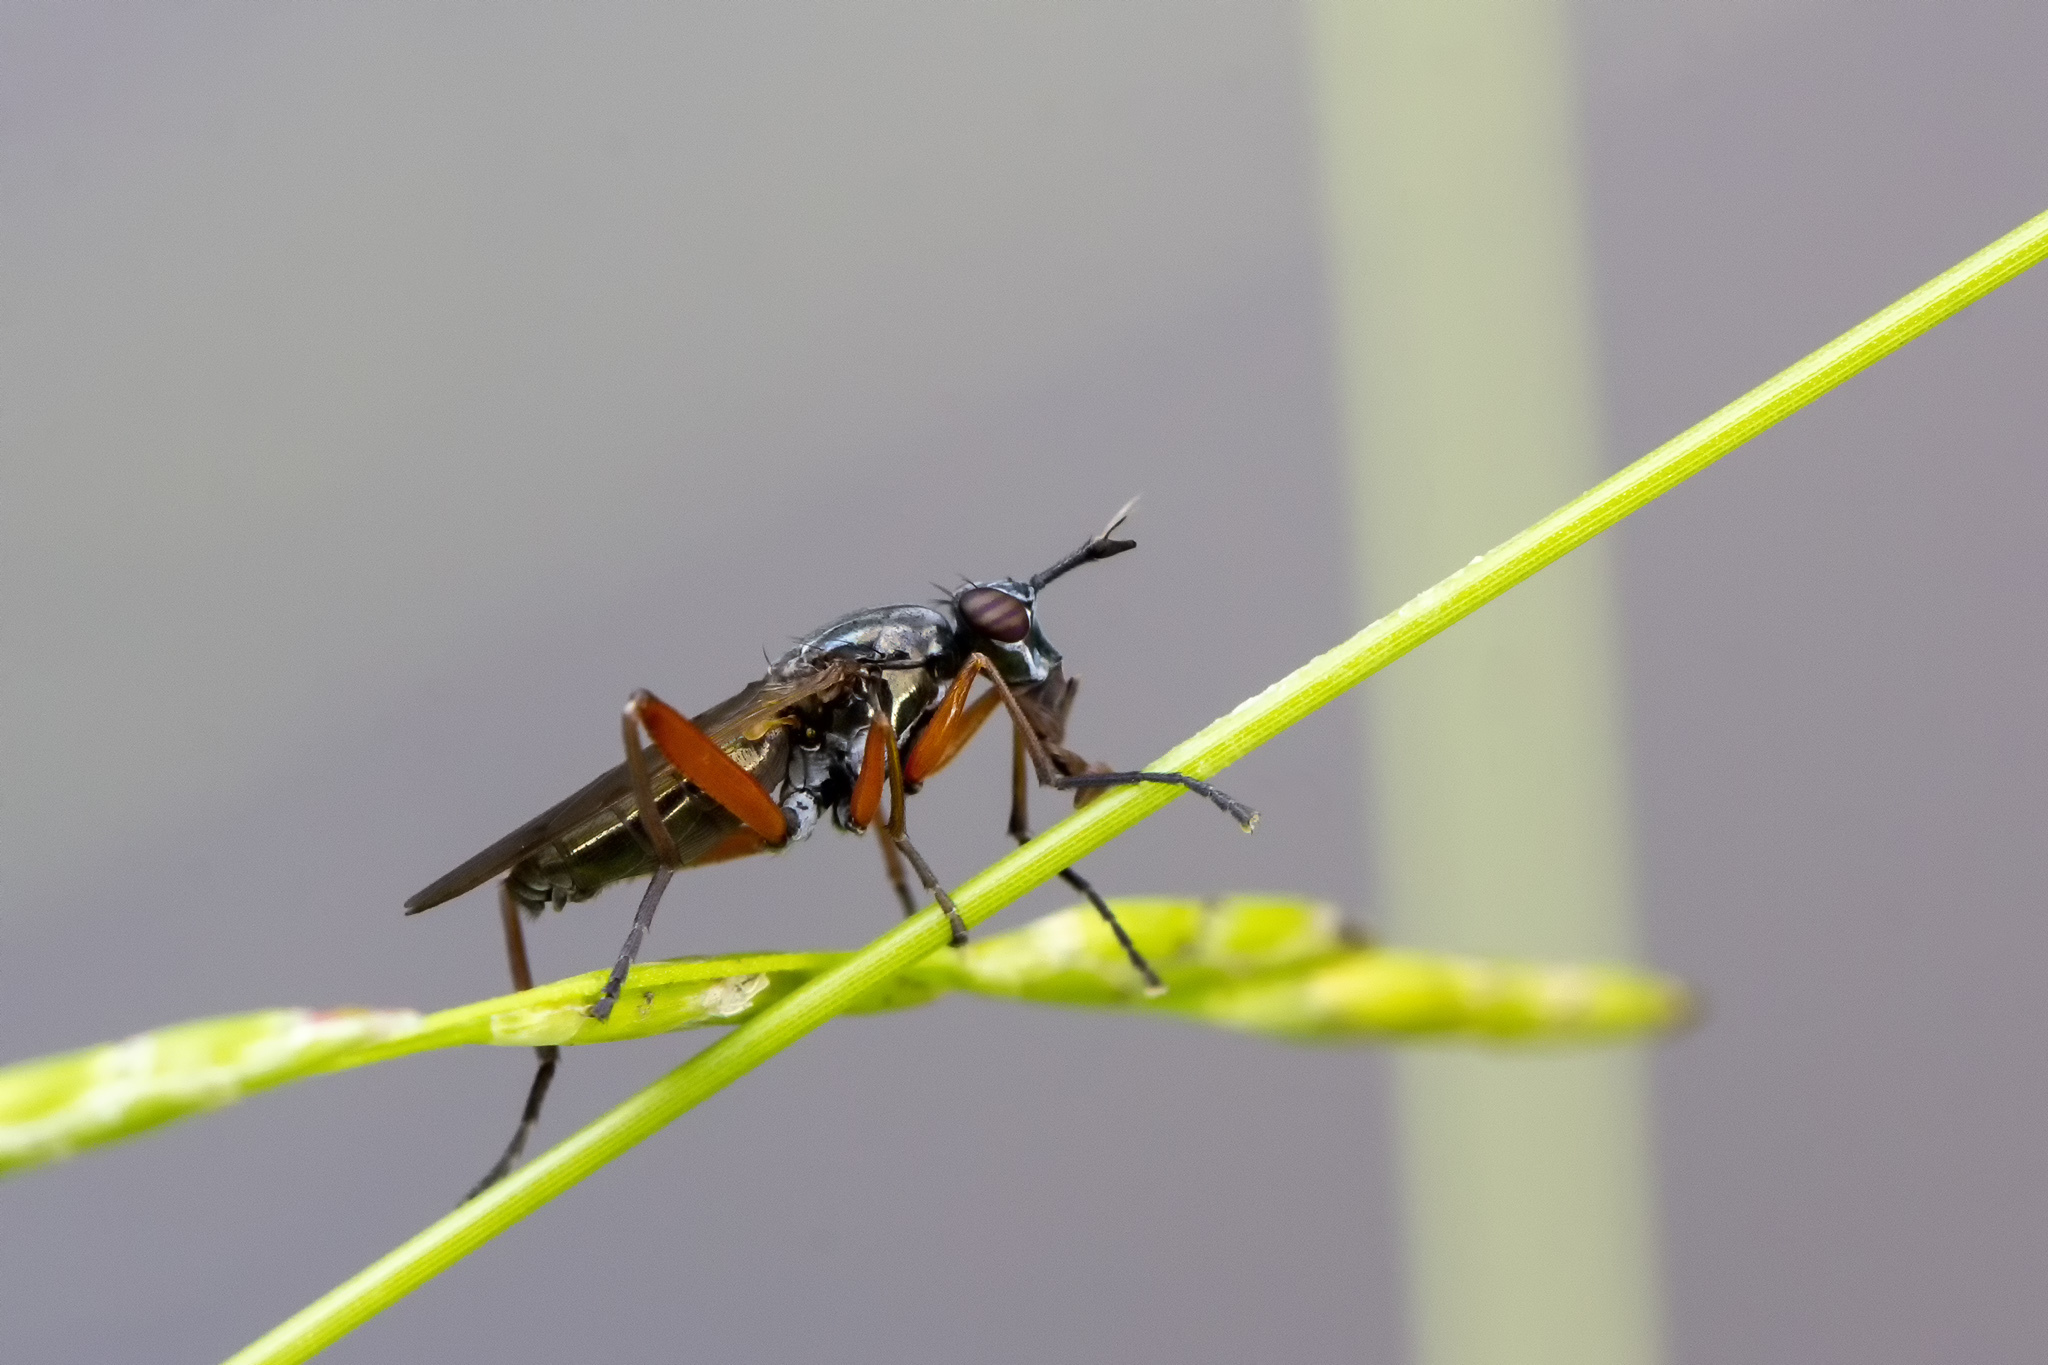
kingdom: Animalia
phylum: Arthropoda
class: Insecta
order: Diptera
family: Sciomyzidae
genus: Sepedon
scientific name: Sepedon sphegea
